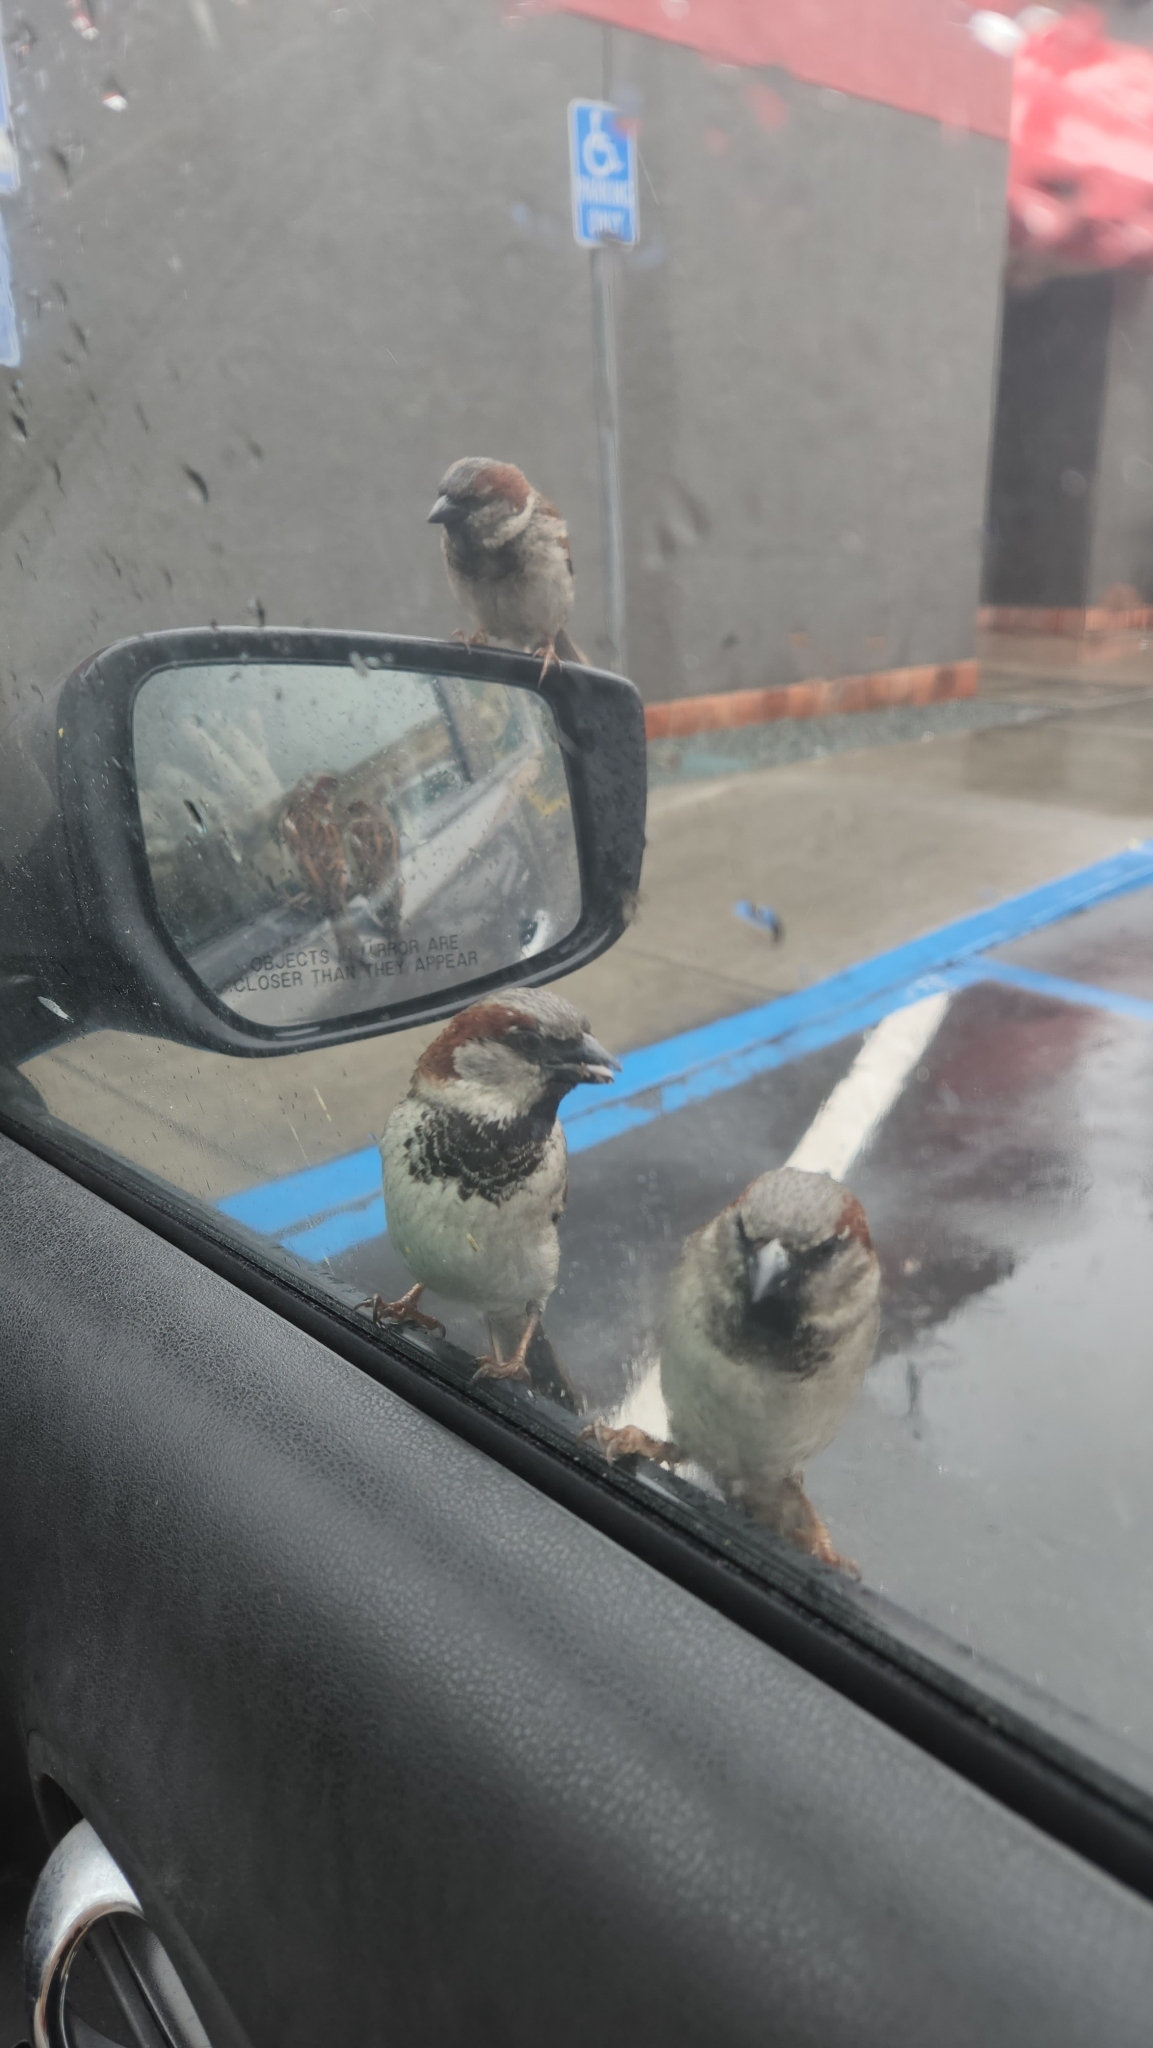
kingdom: Animalia
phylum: Chordata
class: Aves
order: Passeriformes
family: Passeridae
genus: Passer
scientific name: Passer domesticus
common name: House sparrow
